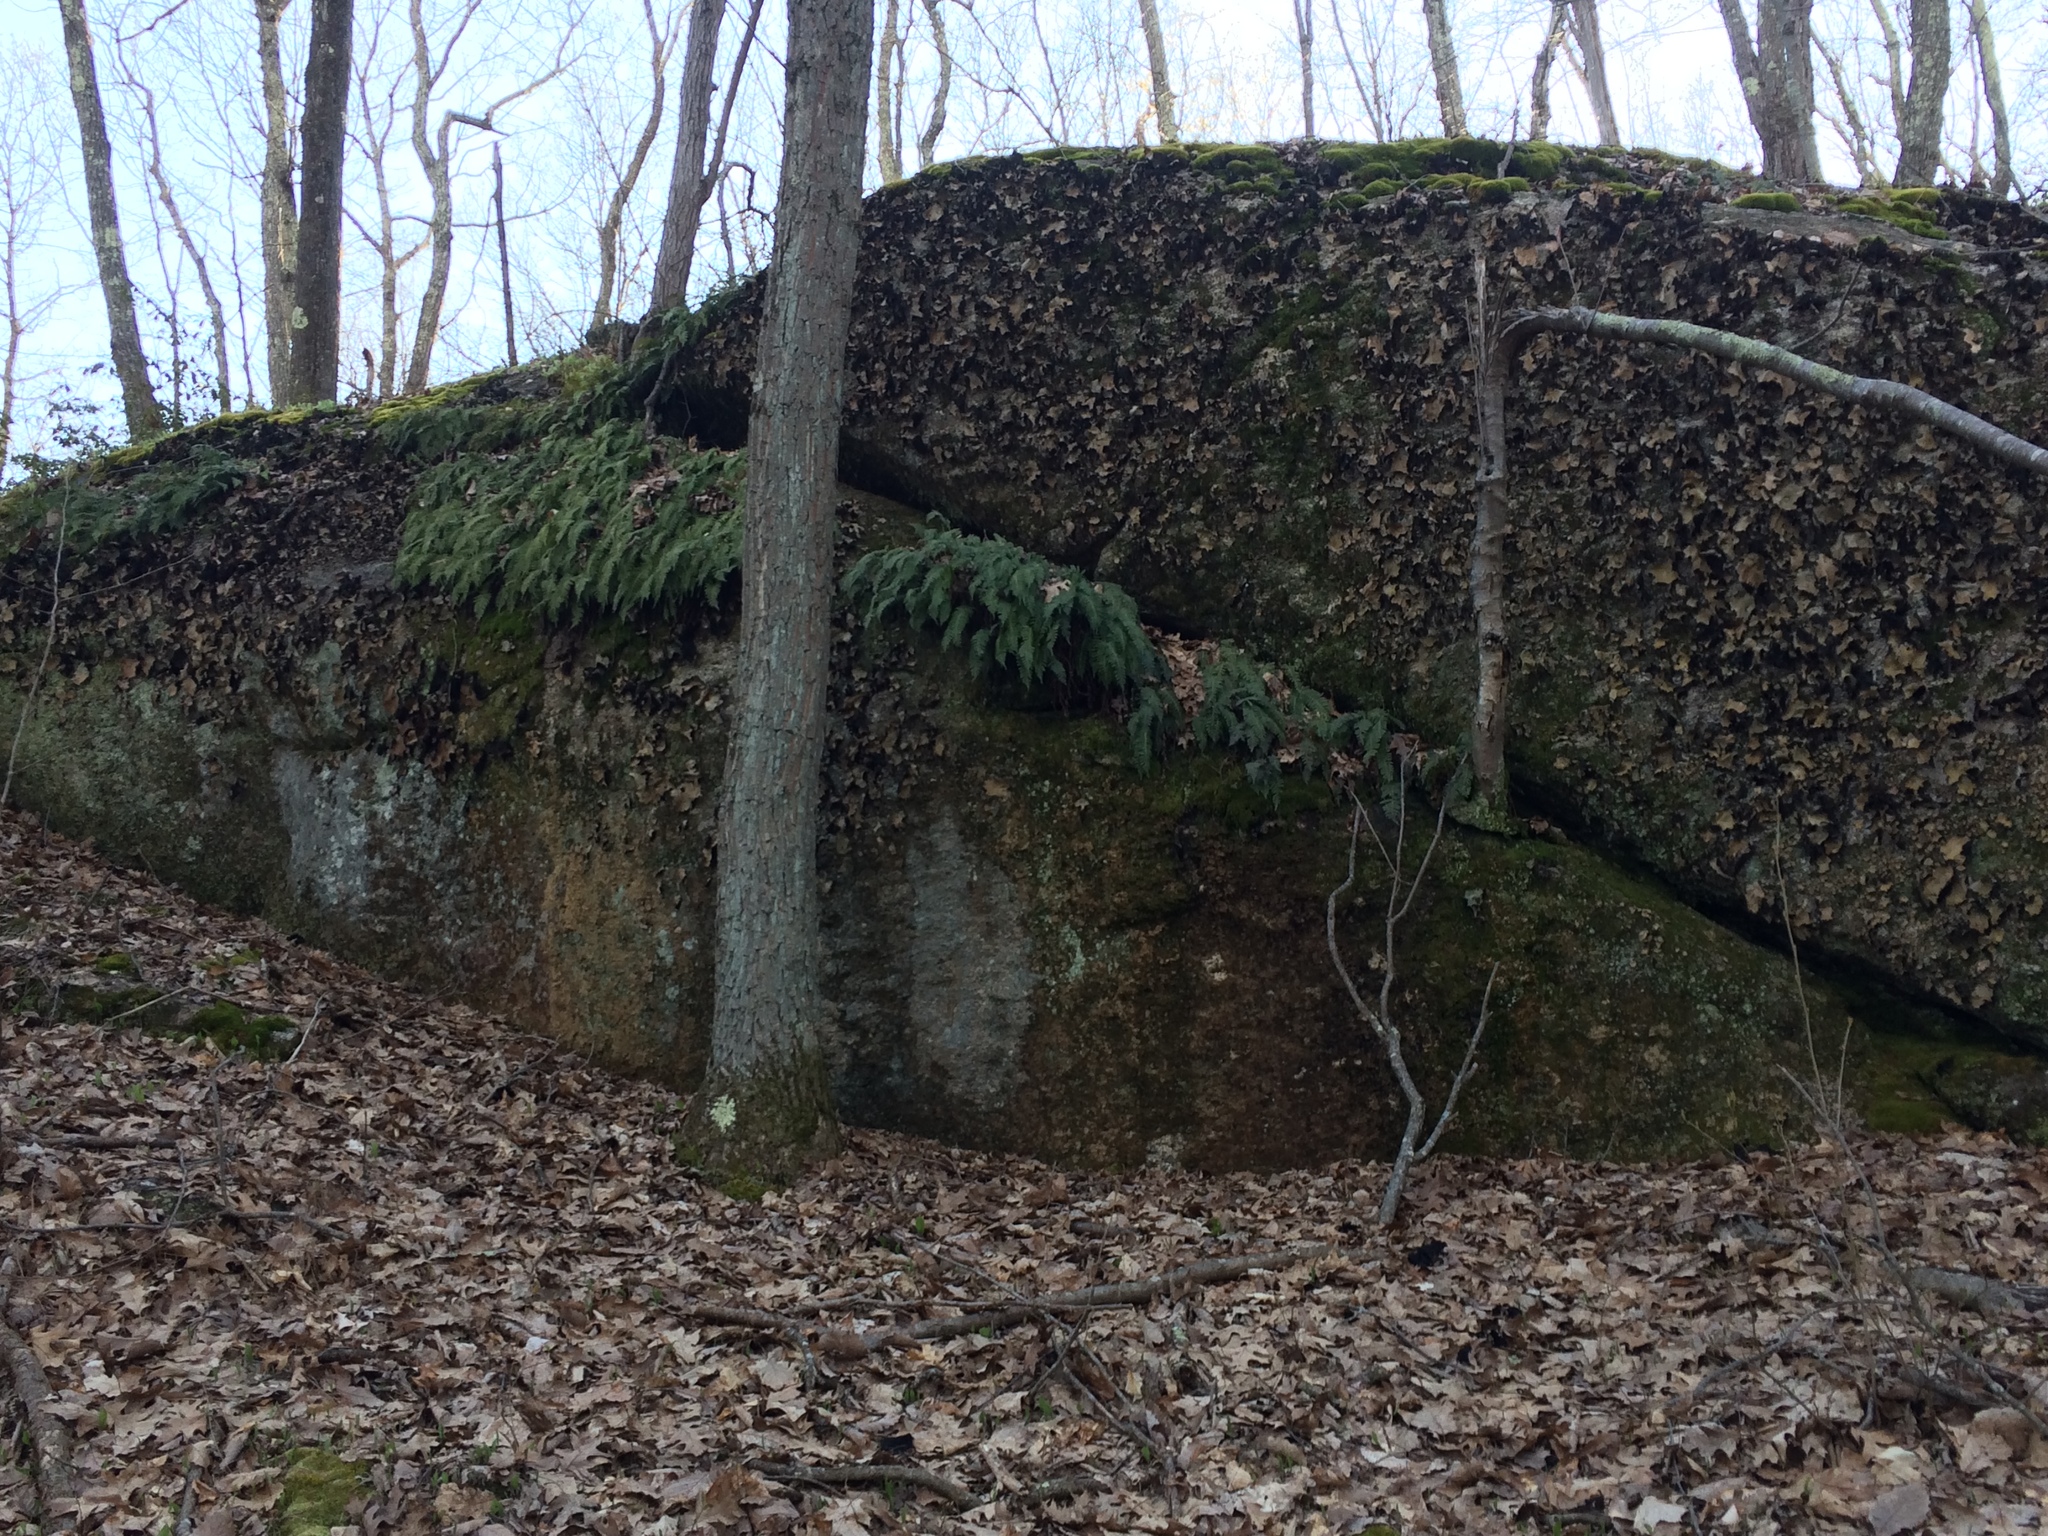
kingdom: Fungi
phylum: Ascomycota
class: Lecanoromycetes
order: Umbilicariales
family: Umbilicariaceae
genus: Umbilicaria
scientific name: Umbilicaria mammulata
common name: Smooth rock tripe
